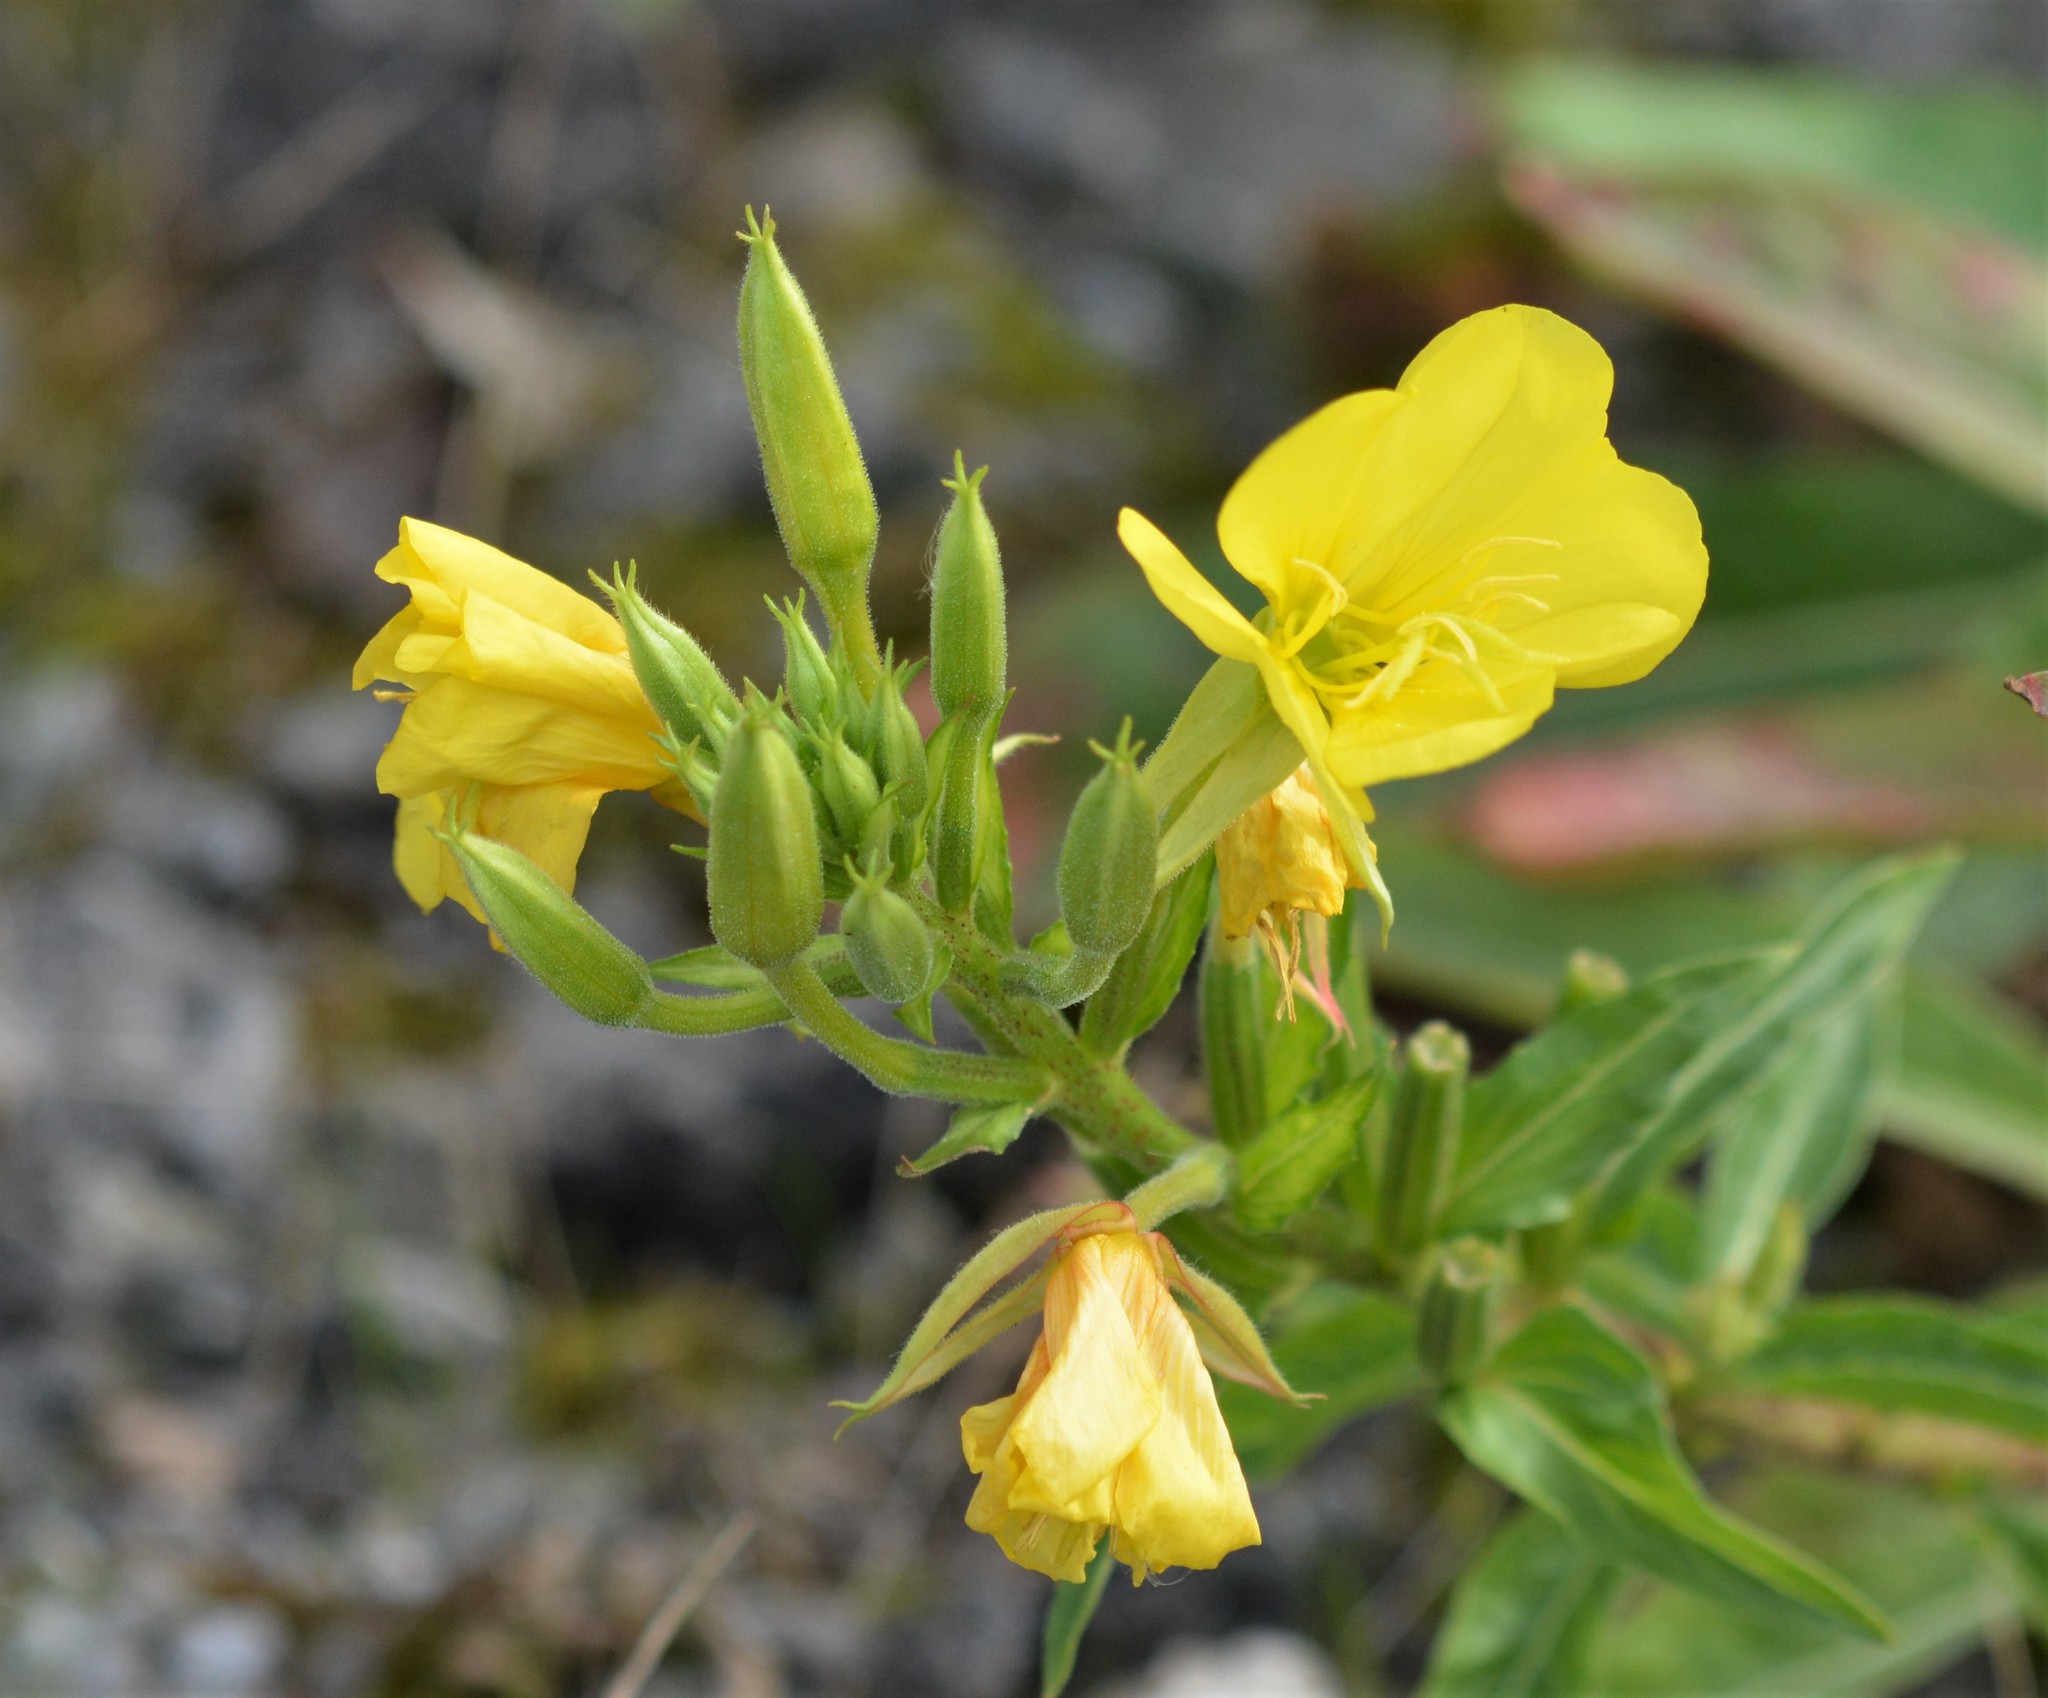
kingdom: Plantae
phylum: Tracheophyta
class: Magnoliopsida
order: Myrtales
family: Onagraceae
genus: Oenothera
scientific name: Oenothera biennis
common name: Common evening-primrose
